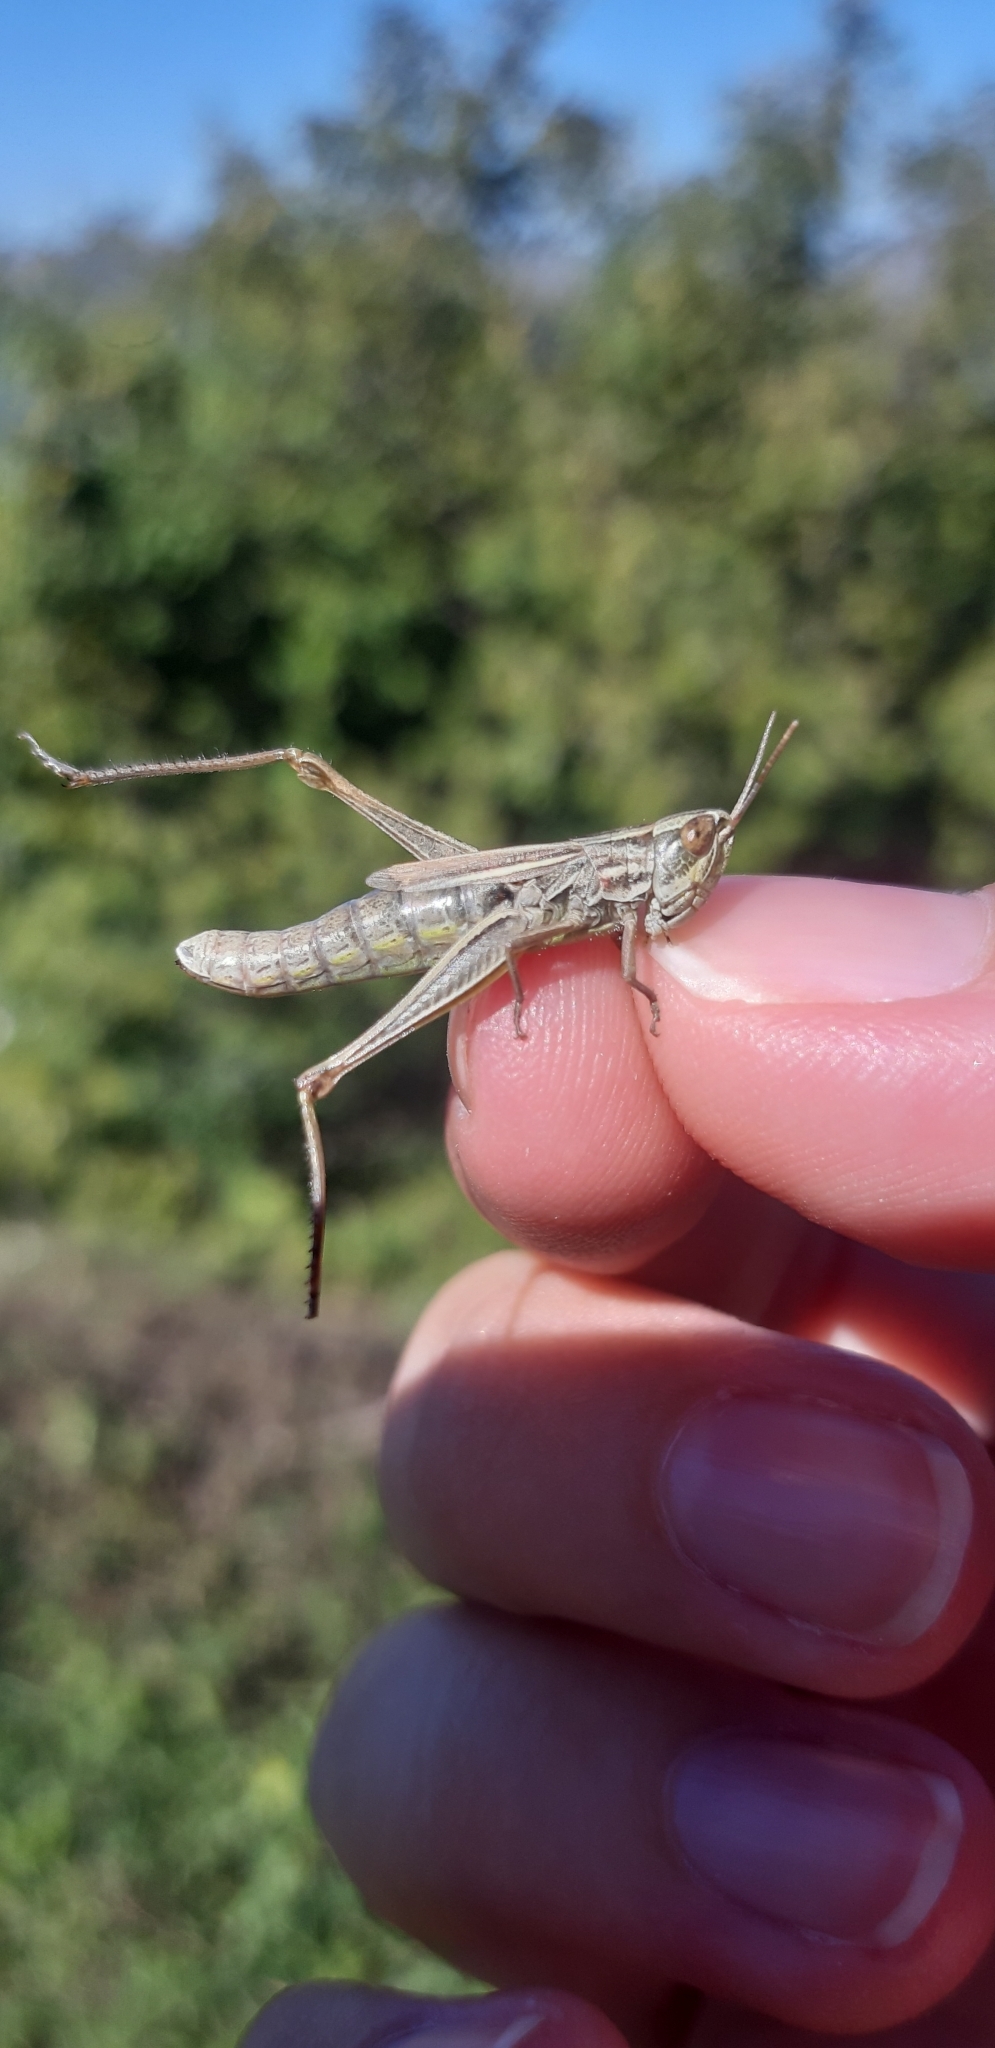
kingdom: Animalia
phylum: Arthropoda
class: Insecta
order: Orthoptera
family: Acrididae
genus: Euchorthippus
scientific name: Euchorthippus declivus
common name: Common straw grasshopper
